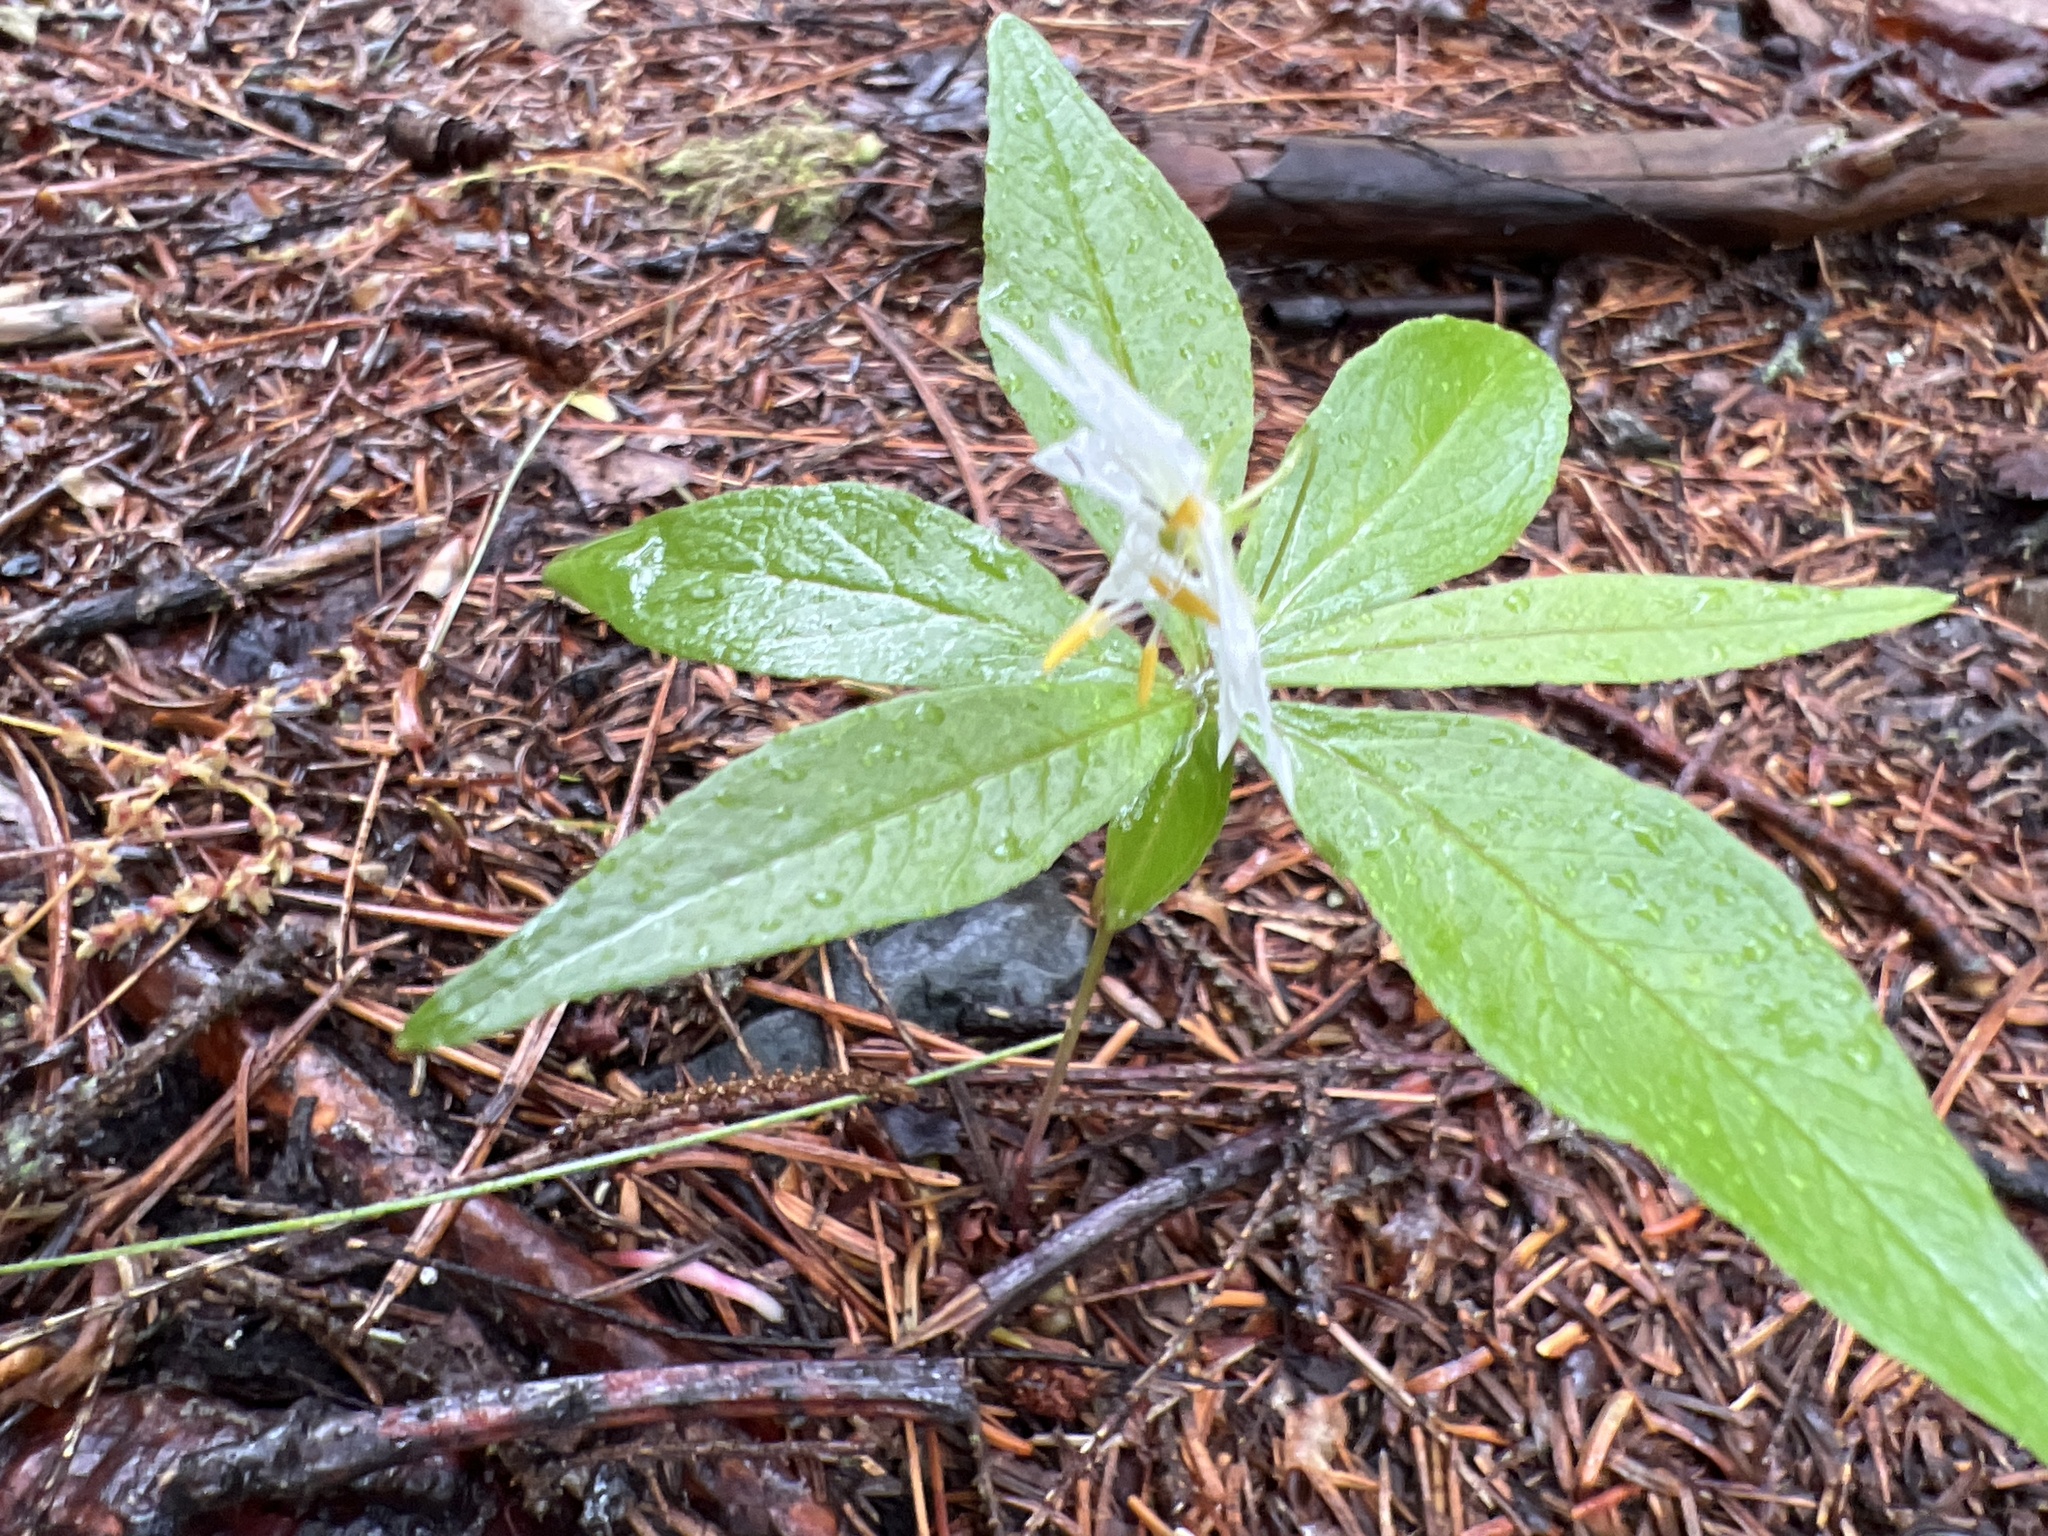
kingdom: Plantae
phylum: Tracheophyta
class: Magnoliopsida
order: Ericales
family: Primulaceae
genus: Lysimachia
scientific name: Lysimachia borealis
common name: American starflower
